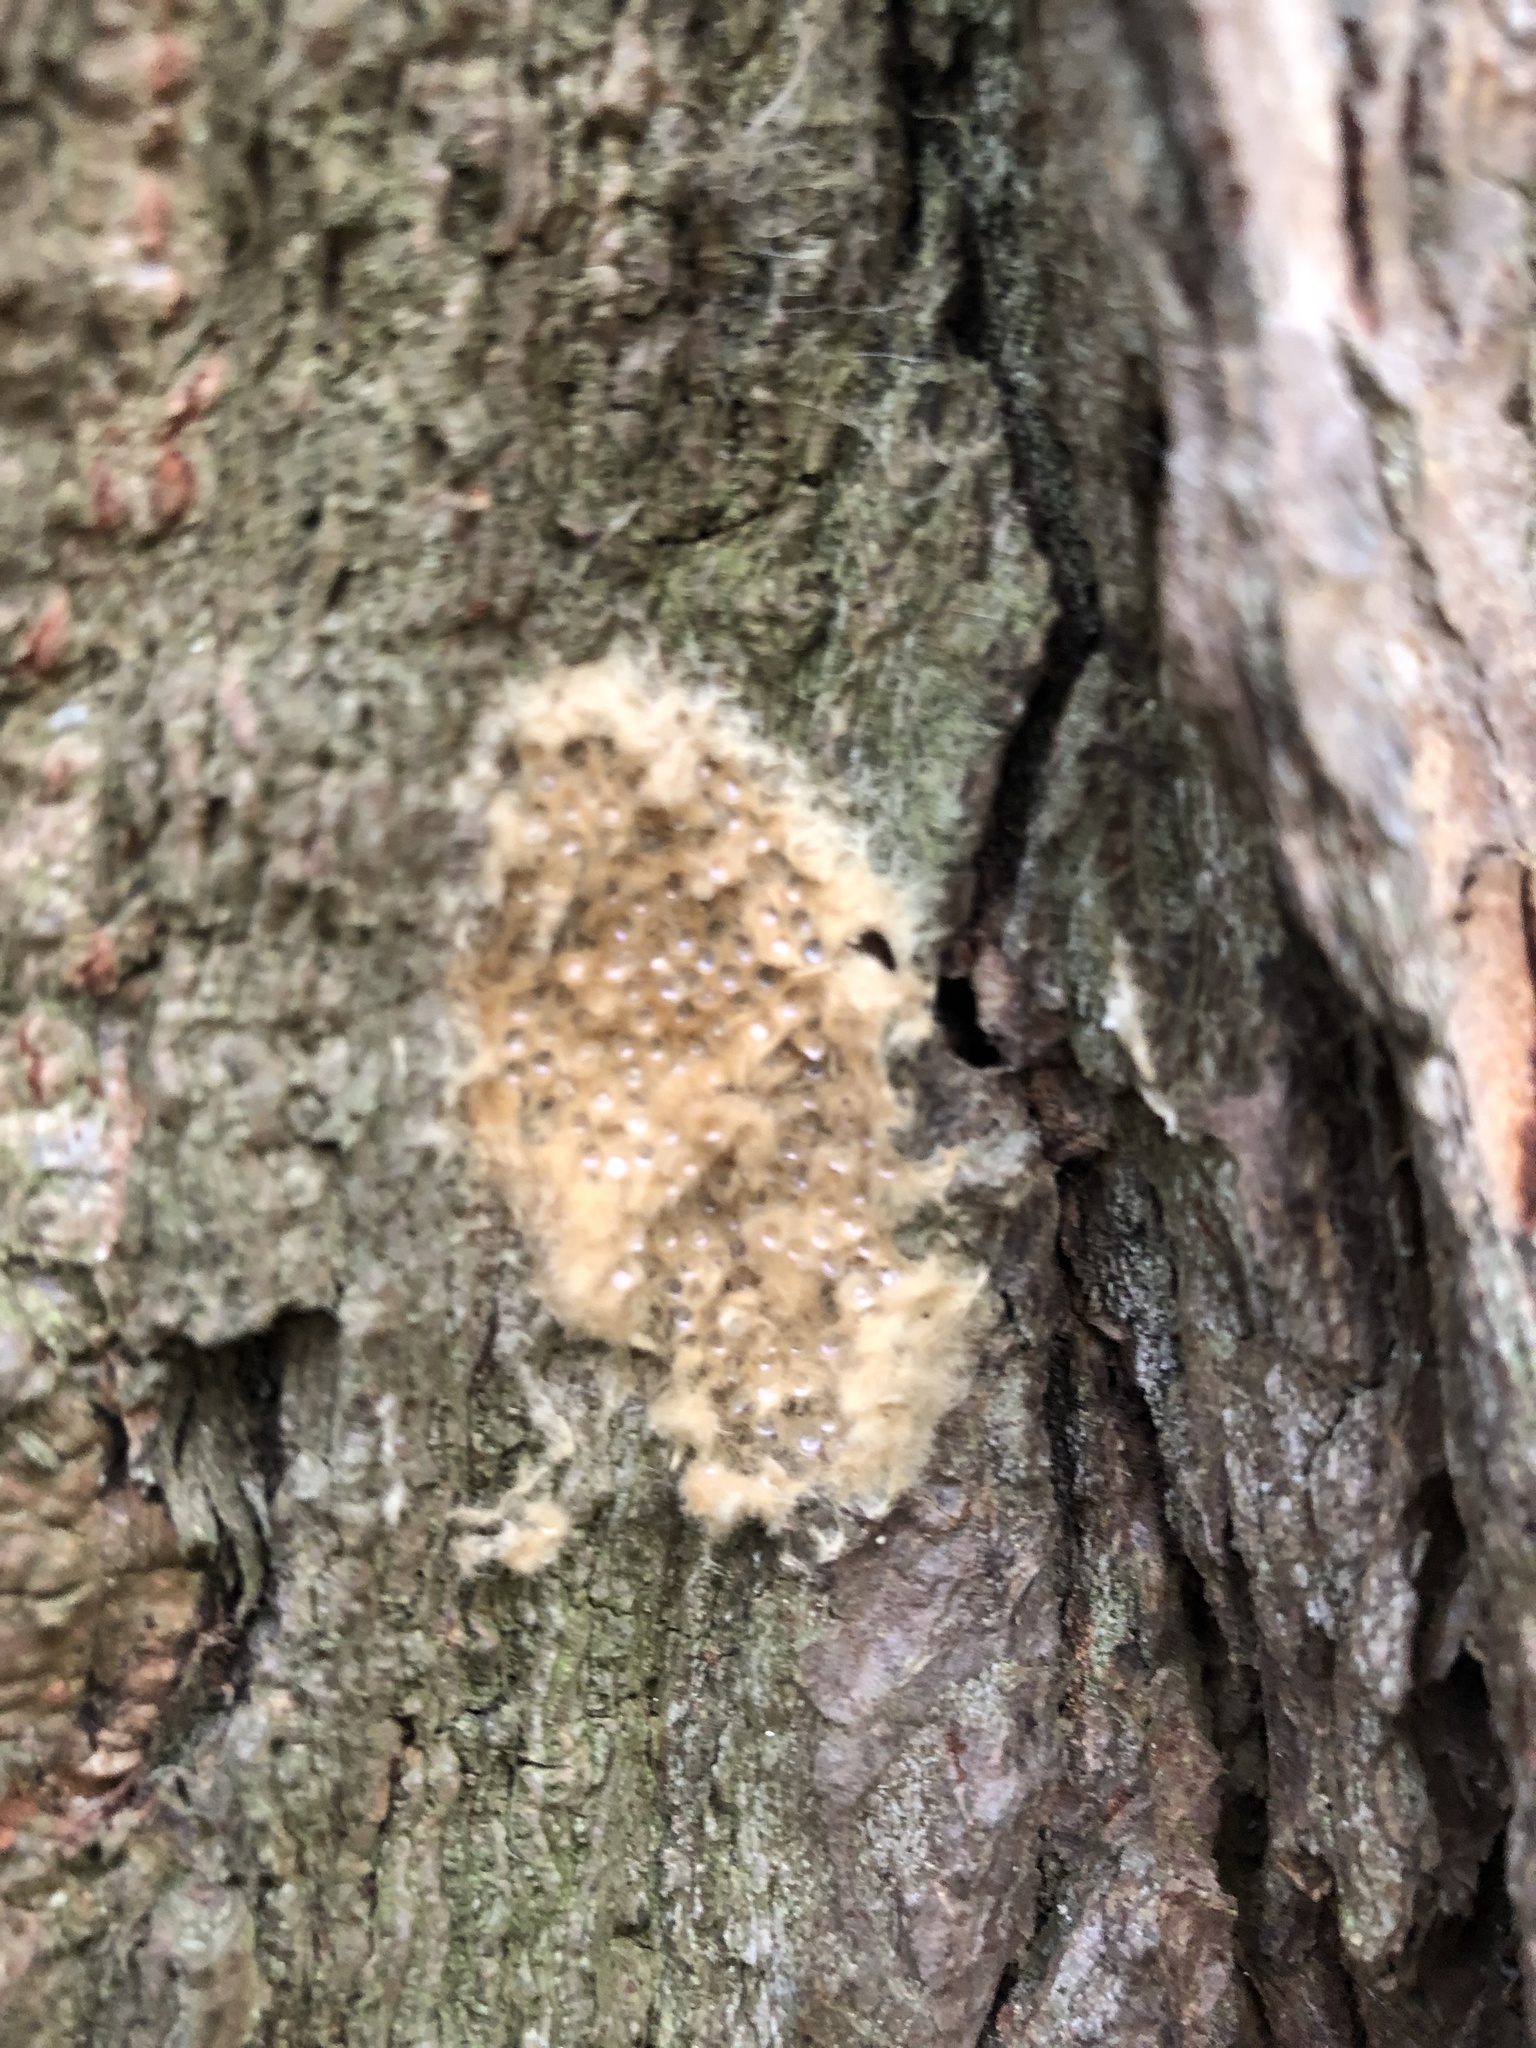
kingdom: Animalia
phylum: Arthropoda
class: Insecta
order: Lepidoptera
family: Erebidae
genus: Lymantria
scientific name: Lymantria dispar
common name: Gypsy moth
